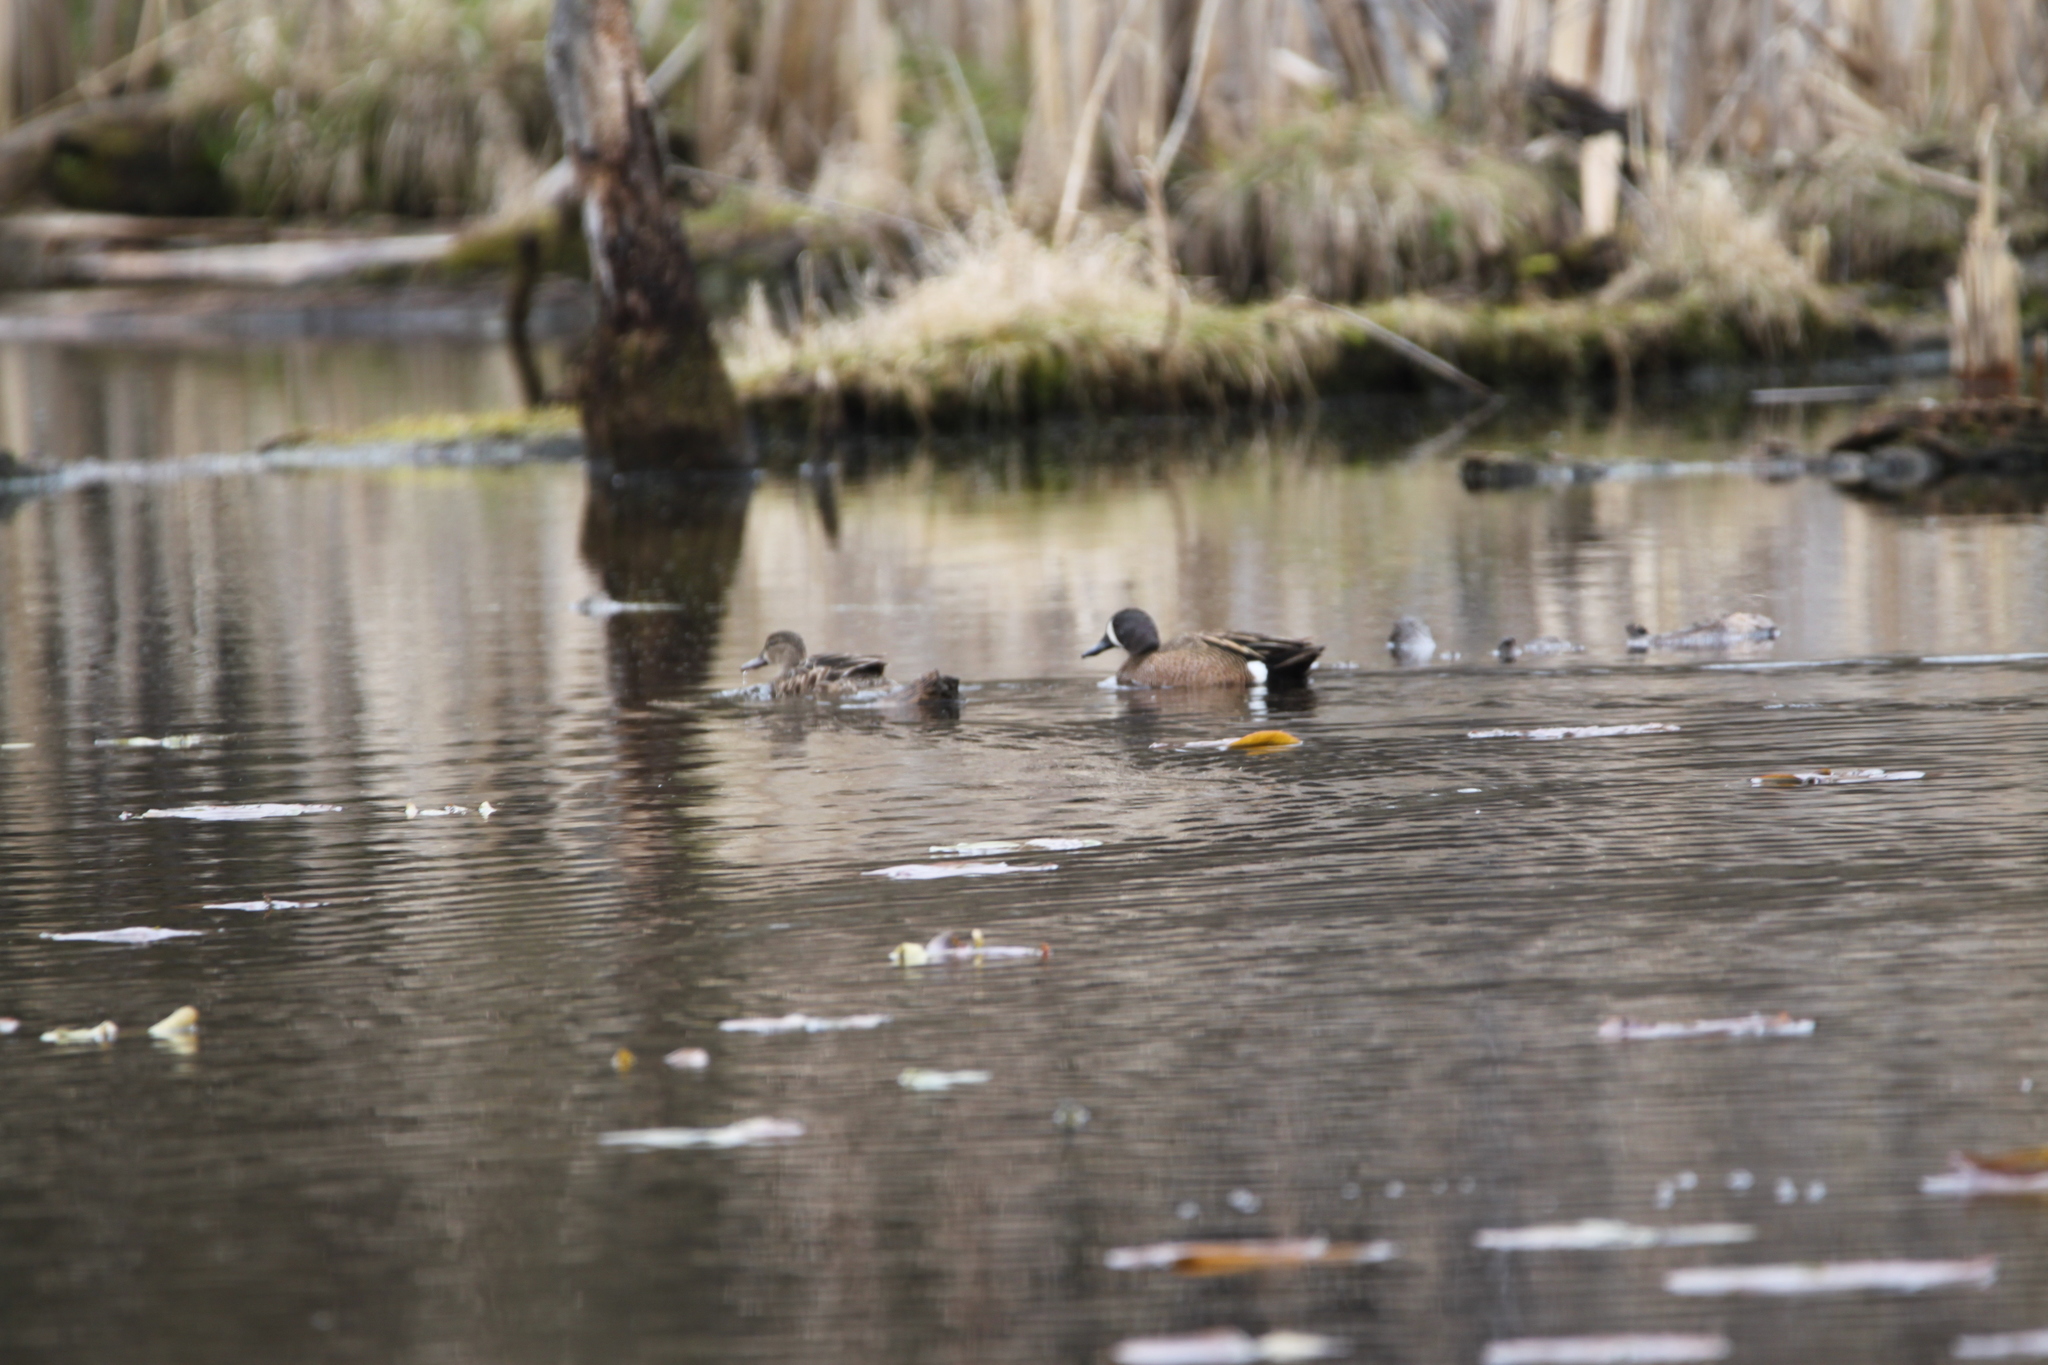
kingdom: Animalia
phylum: Chordata
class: Aves
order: Anseriformes
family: Anatidae
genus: Spatula
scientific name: Spatula discors
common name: Blue-winged teal
